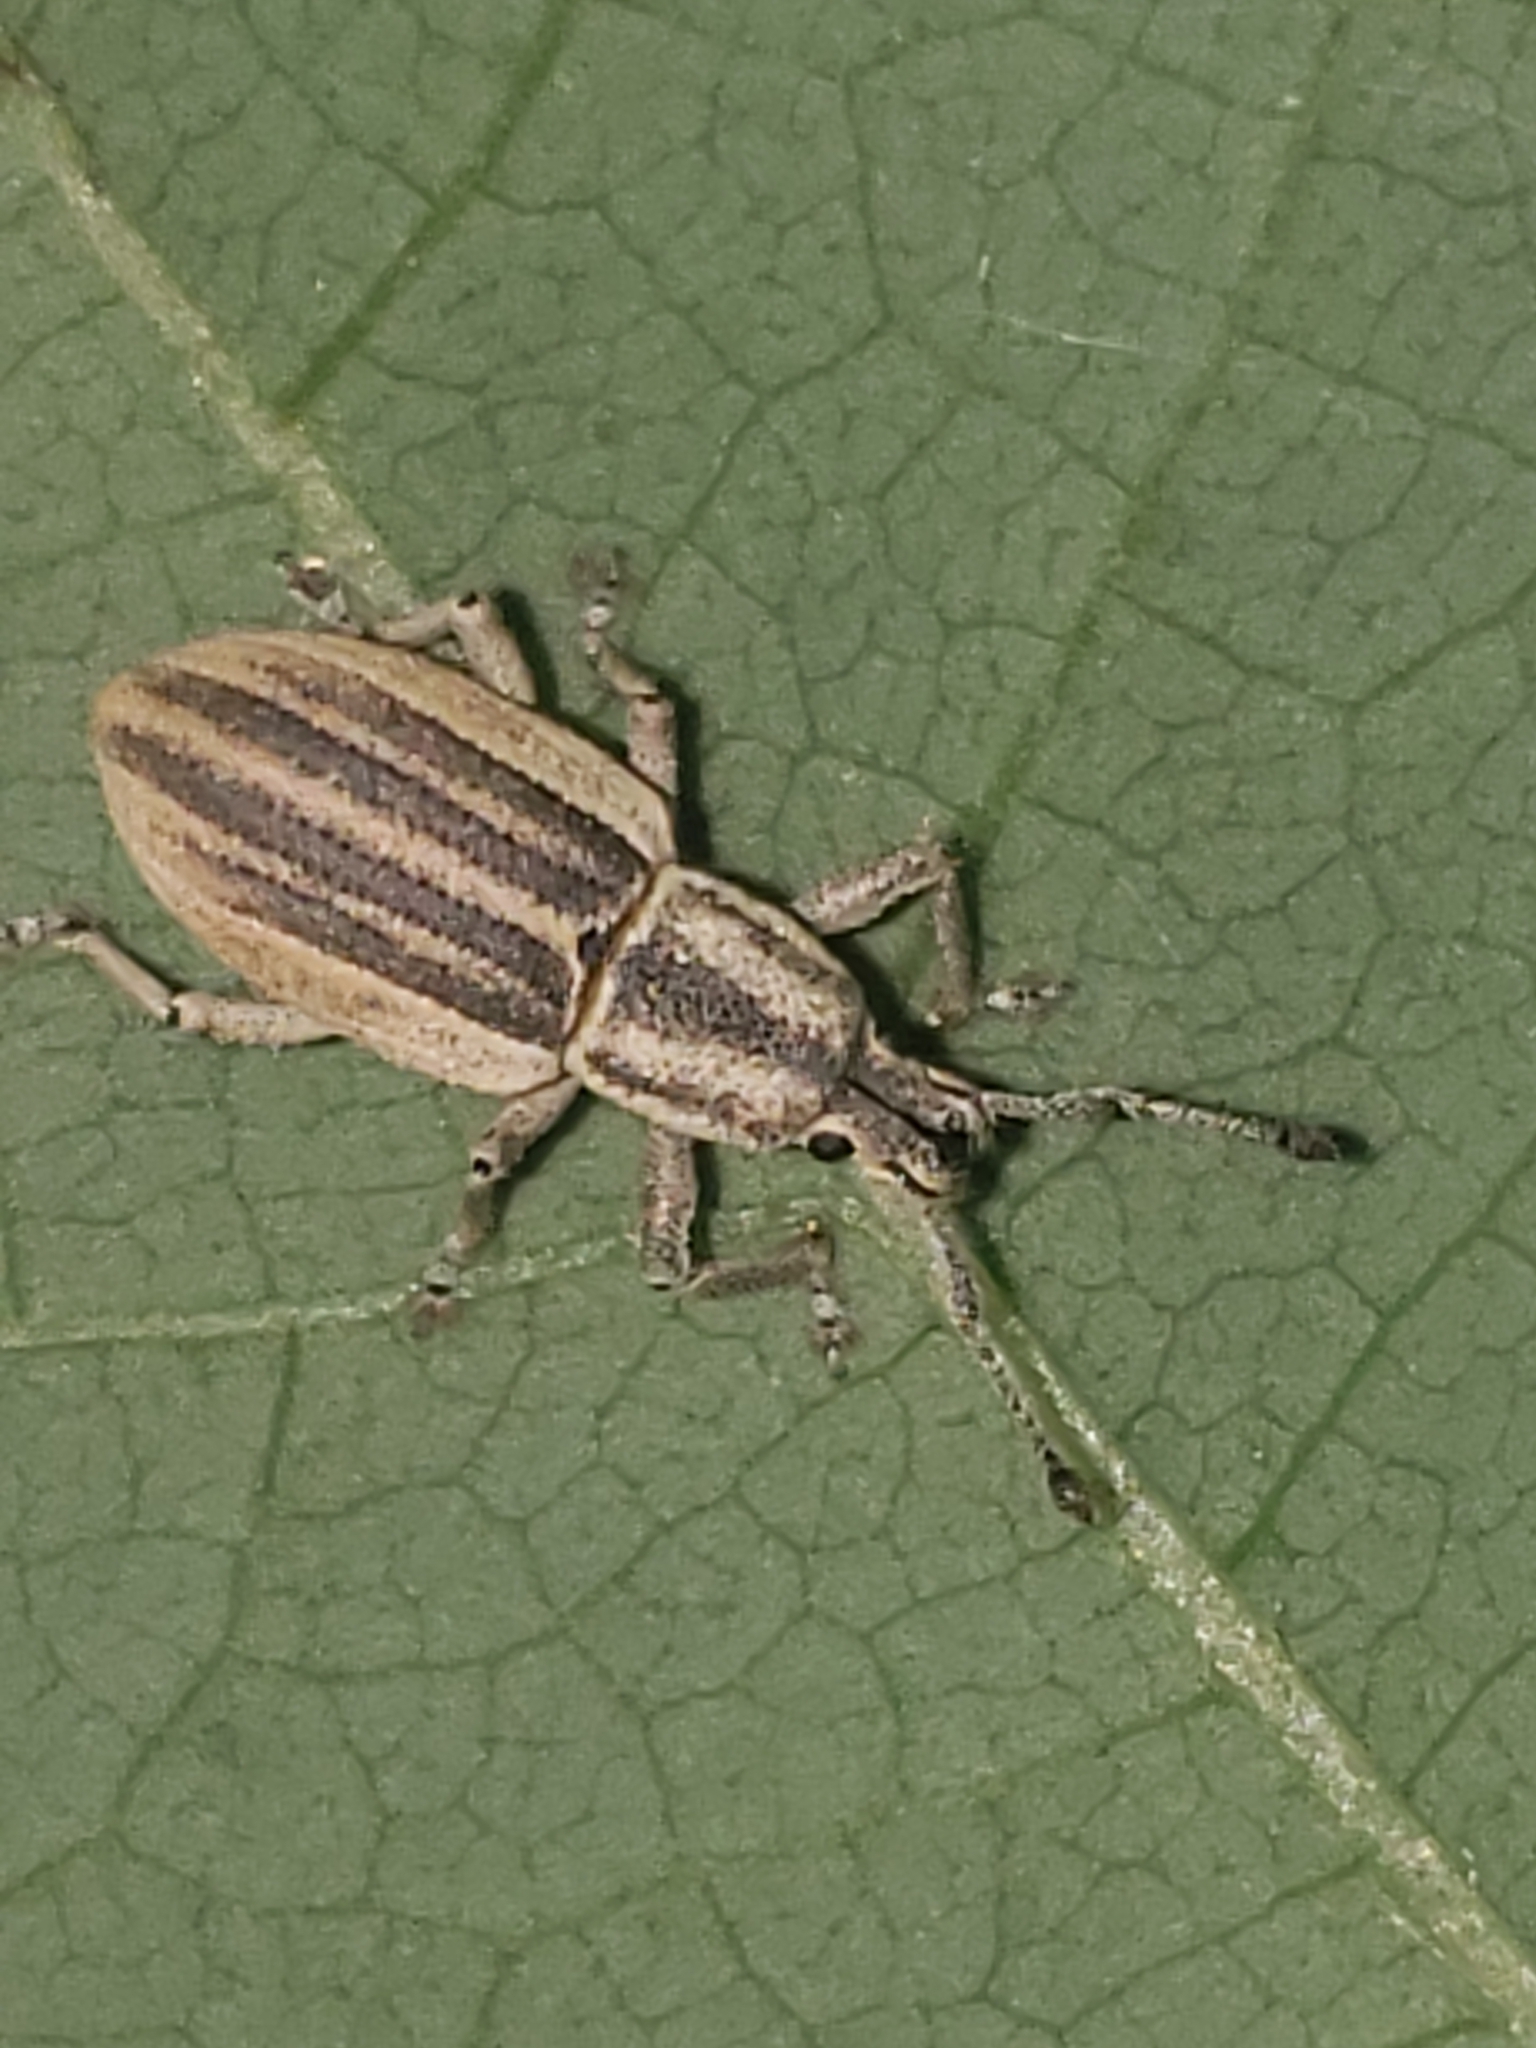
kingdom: Animalia
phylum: Arthropoda
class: Insecta
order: Coleoptera
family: Curculionidae
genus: Aphrastus
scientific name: Aphrastus taeniatus
